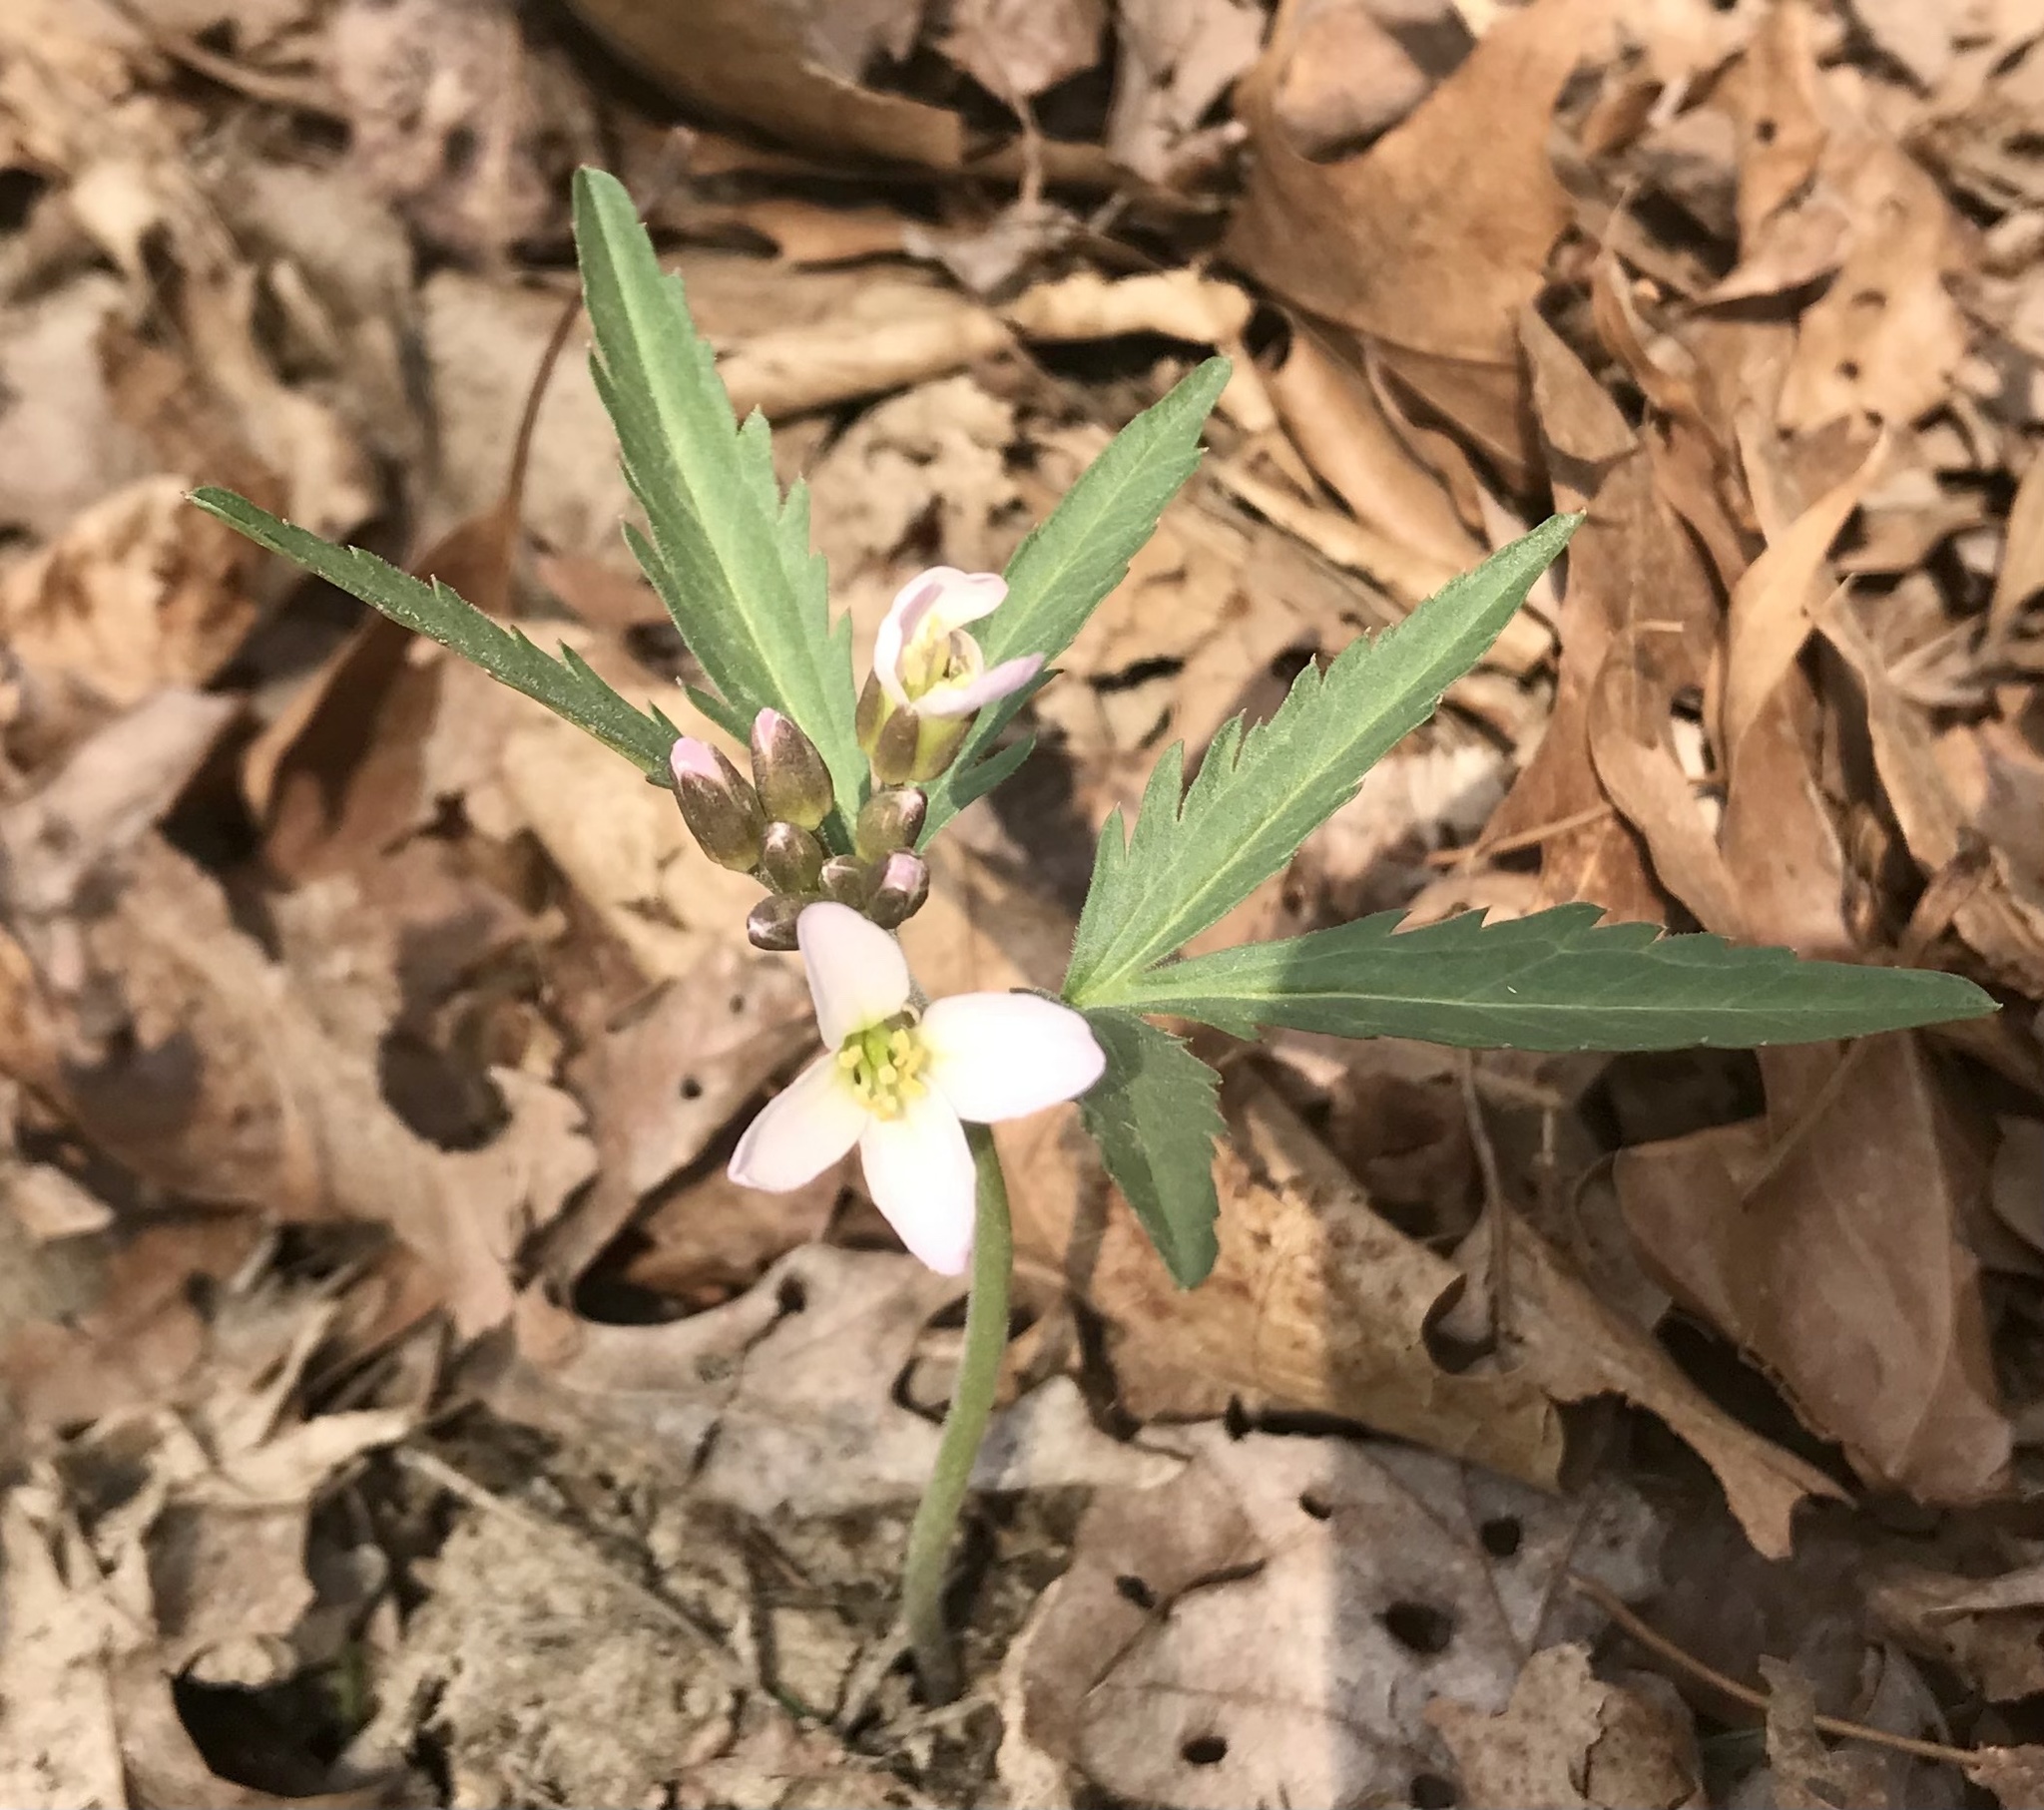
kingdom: Plantae
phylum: Tracheophyta
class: Magnoliopsida
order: Brassicales
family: Brassicaceae
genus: Cardamine
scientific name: Cardamine concatenata
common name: Cut-leaf toothcup
